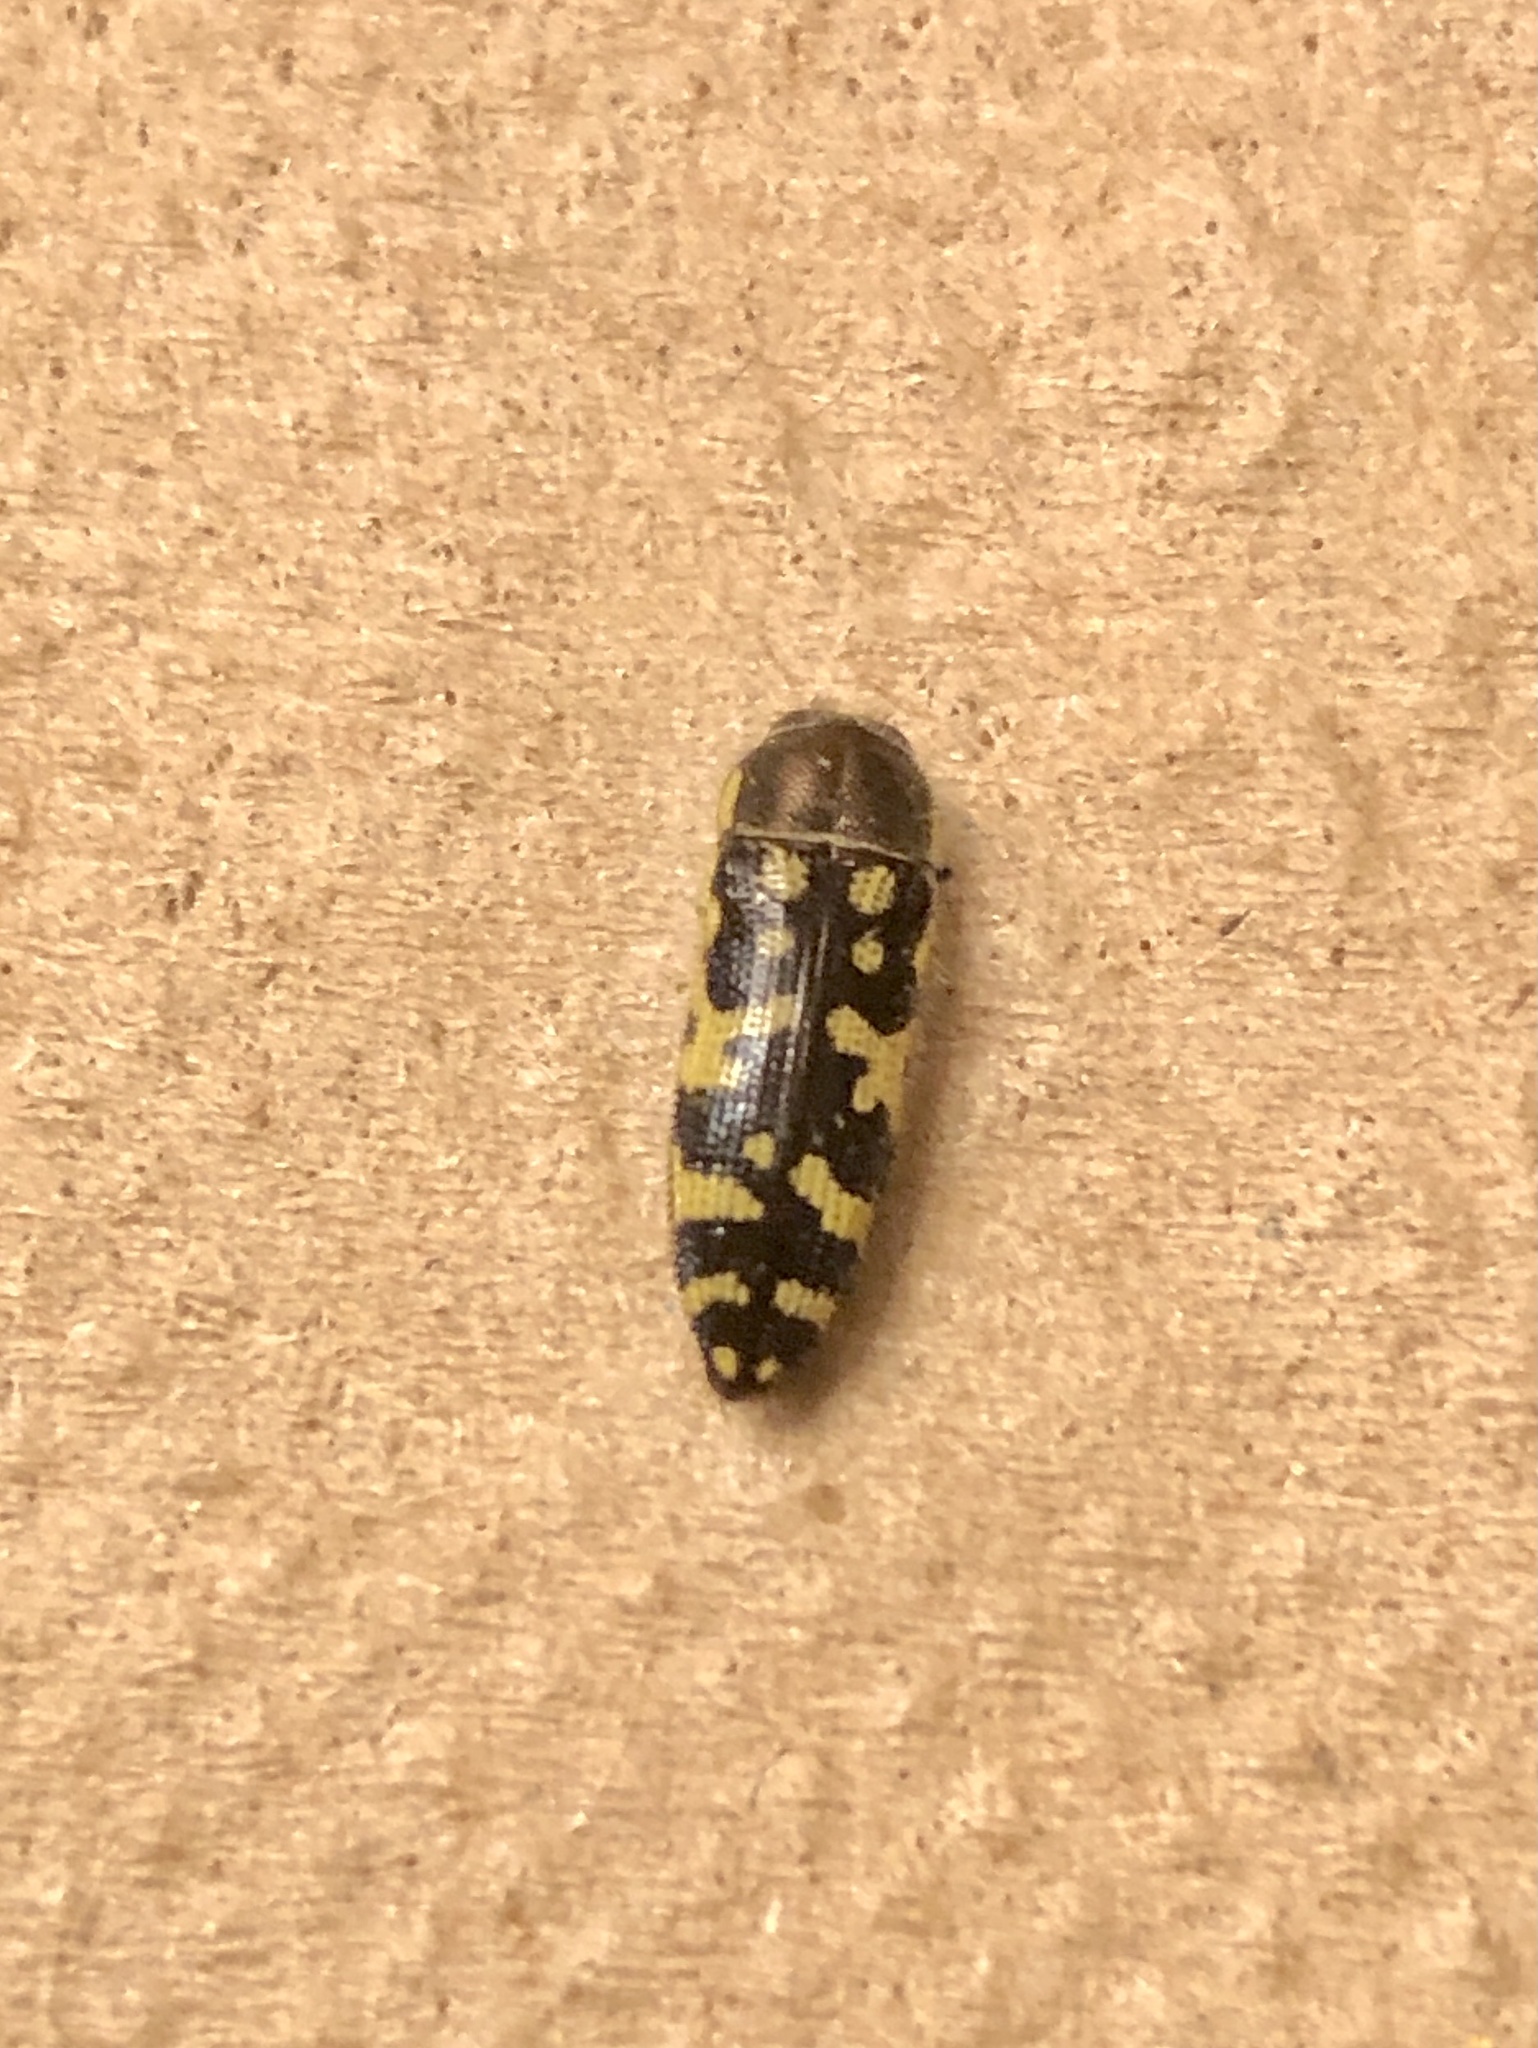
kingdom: Animalia
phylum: Arthropoda
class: Insecta
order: Coleoptera
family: Buprestidae
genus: Acmaeodera
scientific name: Acmaeodera solitaria
